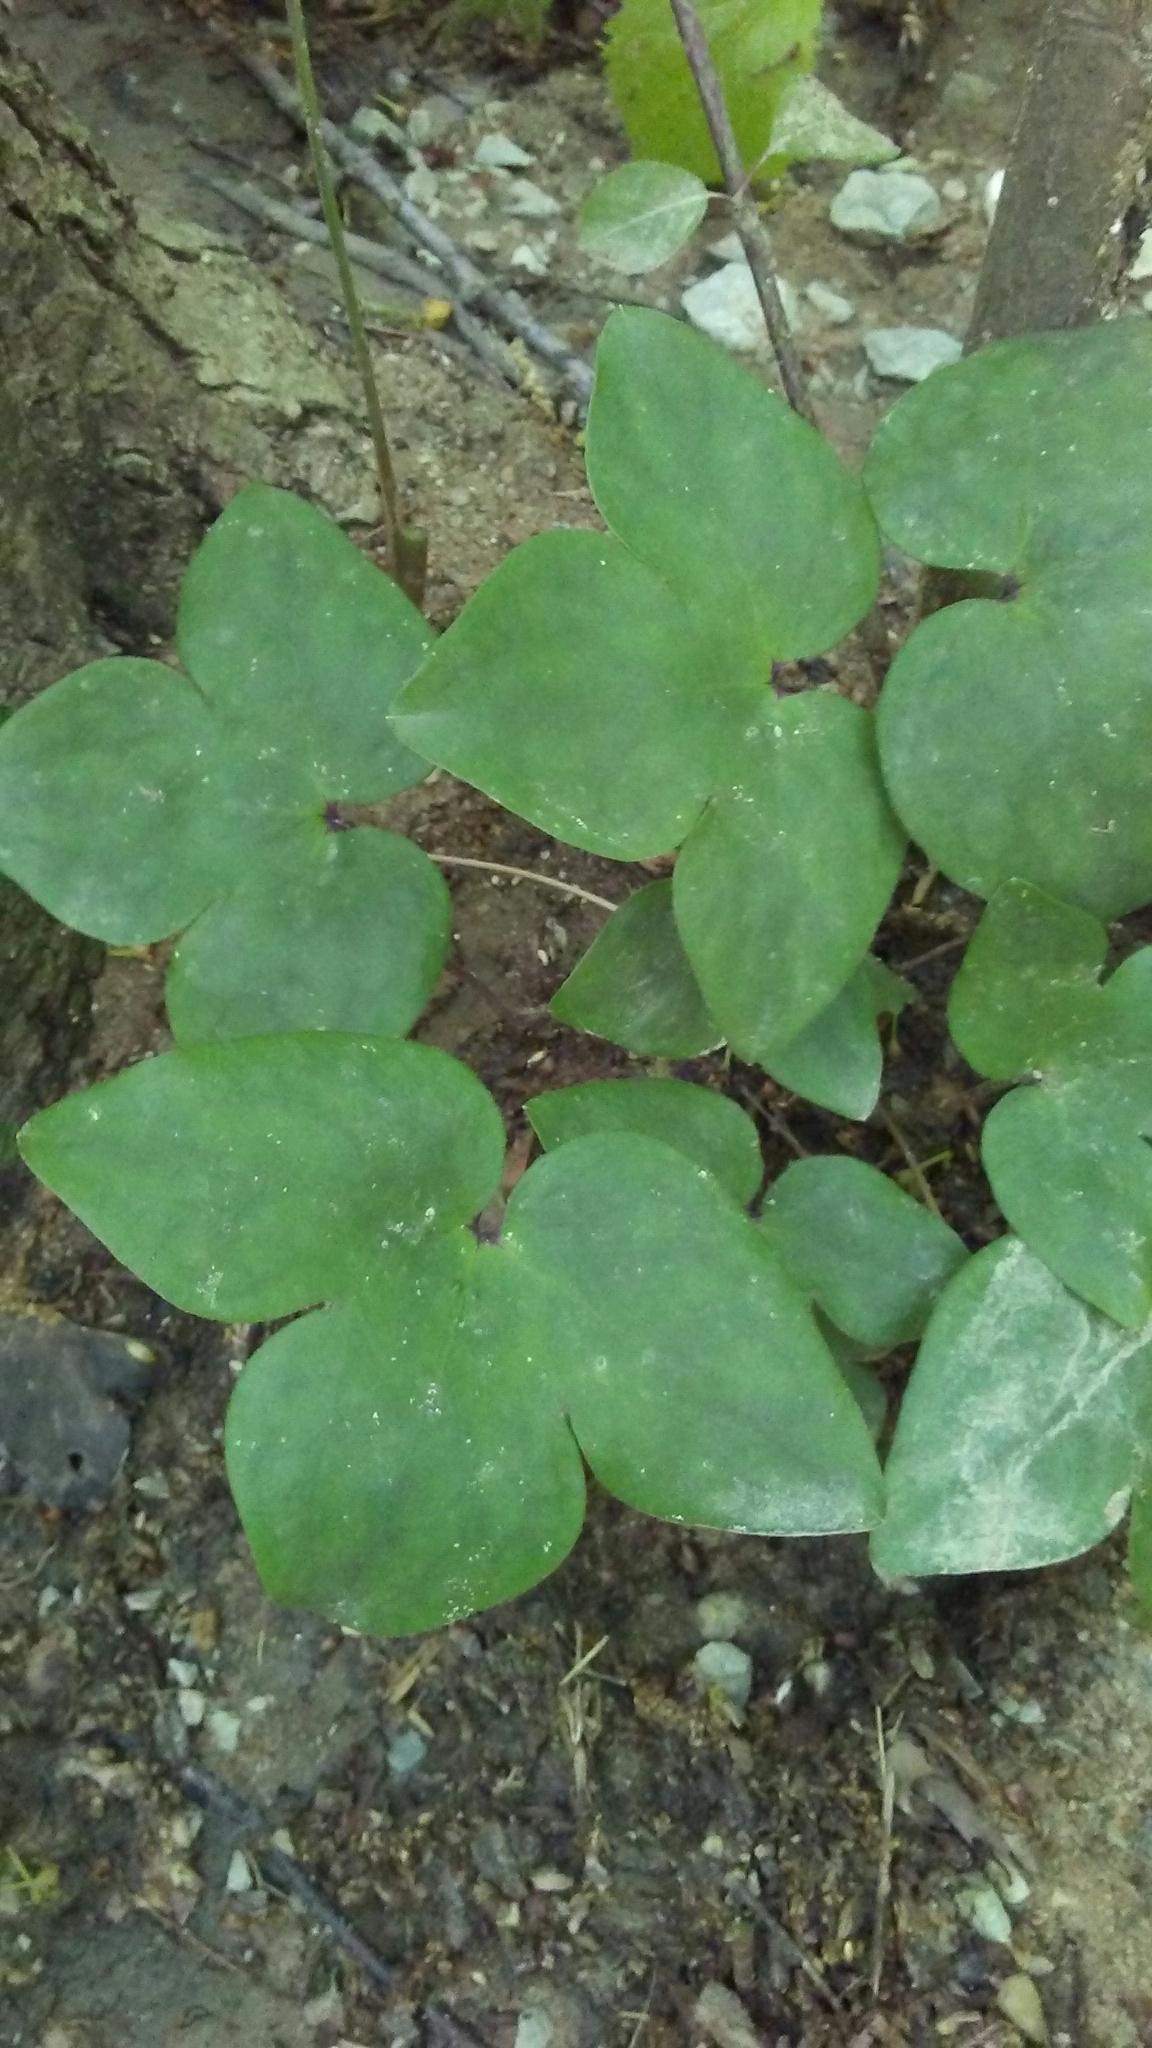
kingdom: Plantae
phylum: Tracheophyta
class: Magnoliopsida
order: Ranunculales
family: Ranunculaceae
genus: Hepatica
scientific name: Hepatica acutiloba
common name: Sharp-lobed hepatica
